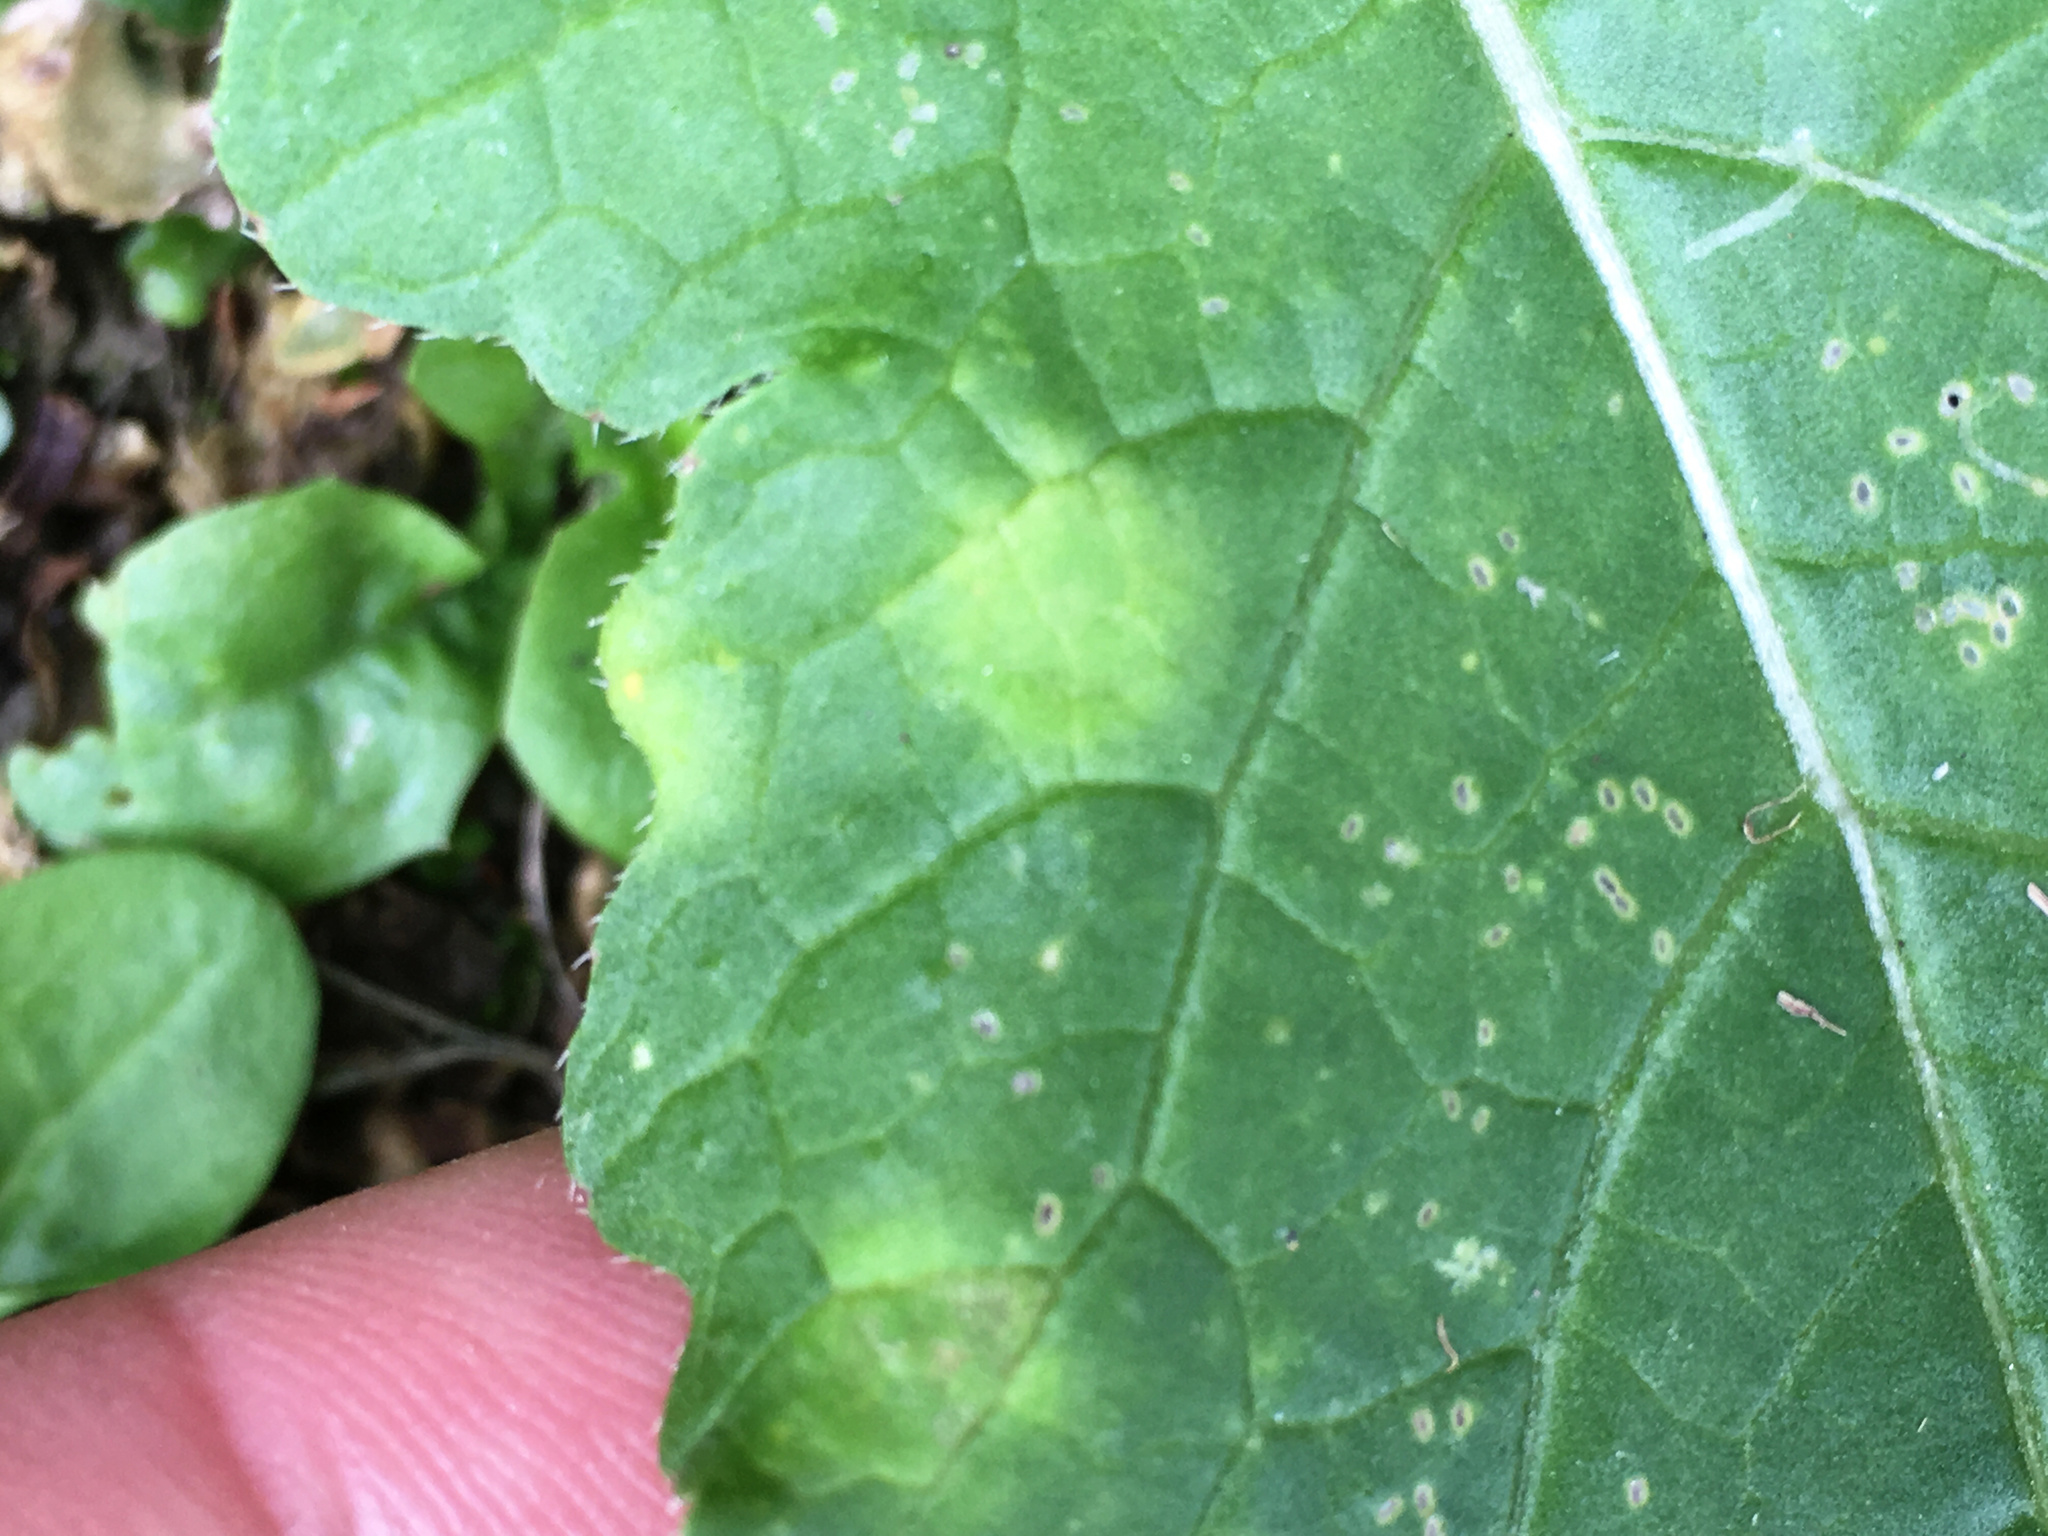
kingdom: Chromista
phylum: Oomycota
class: Peronosporea
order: Albuginales
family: Albuginaceae
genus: Albugo
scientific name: Albugo candida
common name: Crucifer white blister
